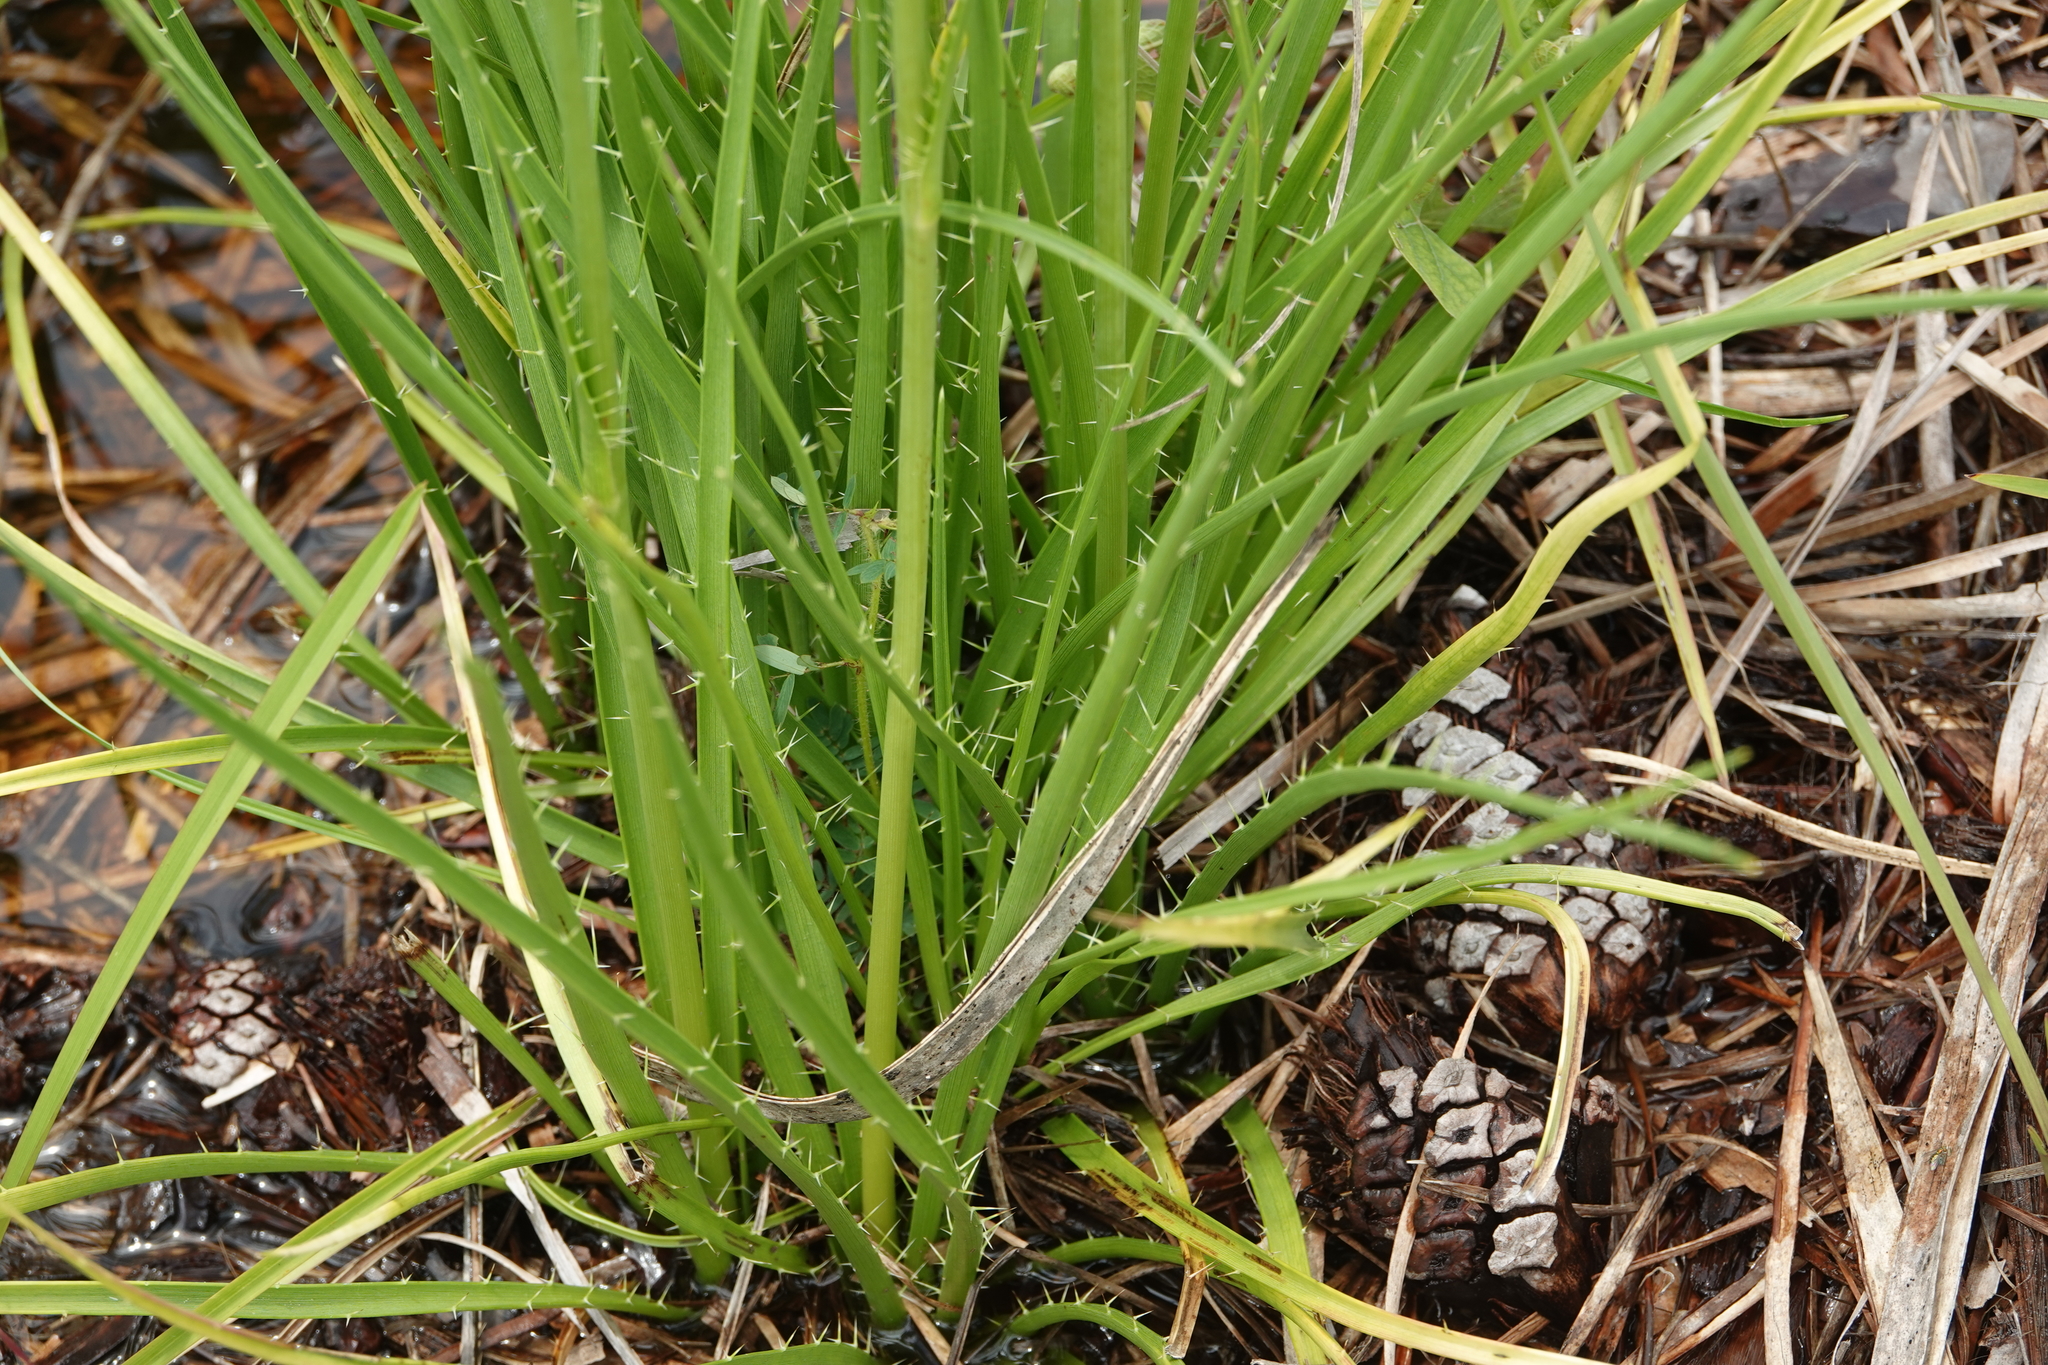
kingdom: Plantae
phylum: Tracheophyta
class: Magnoliopsida
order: Apiales
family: Apiaceae
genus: Eryngium
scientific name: Eryngium yuccifolium
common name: Button eryngo
